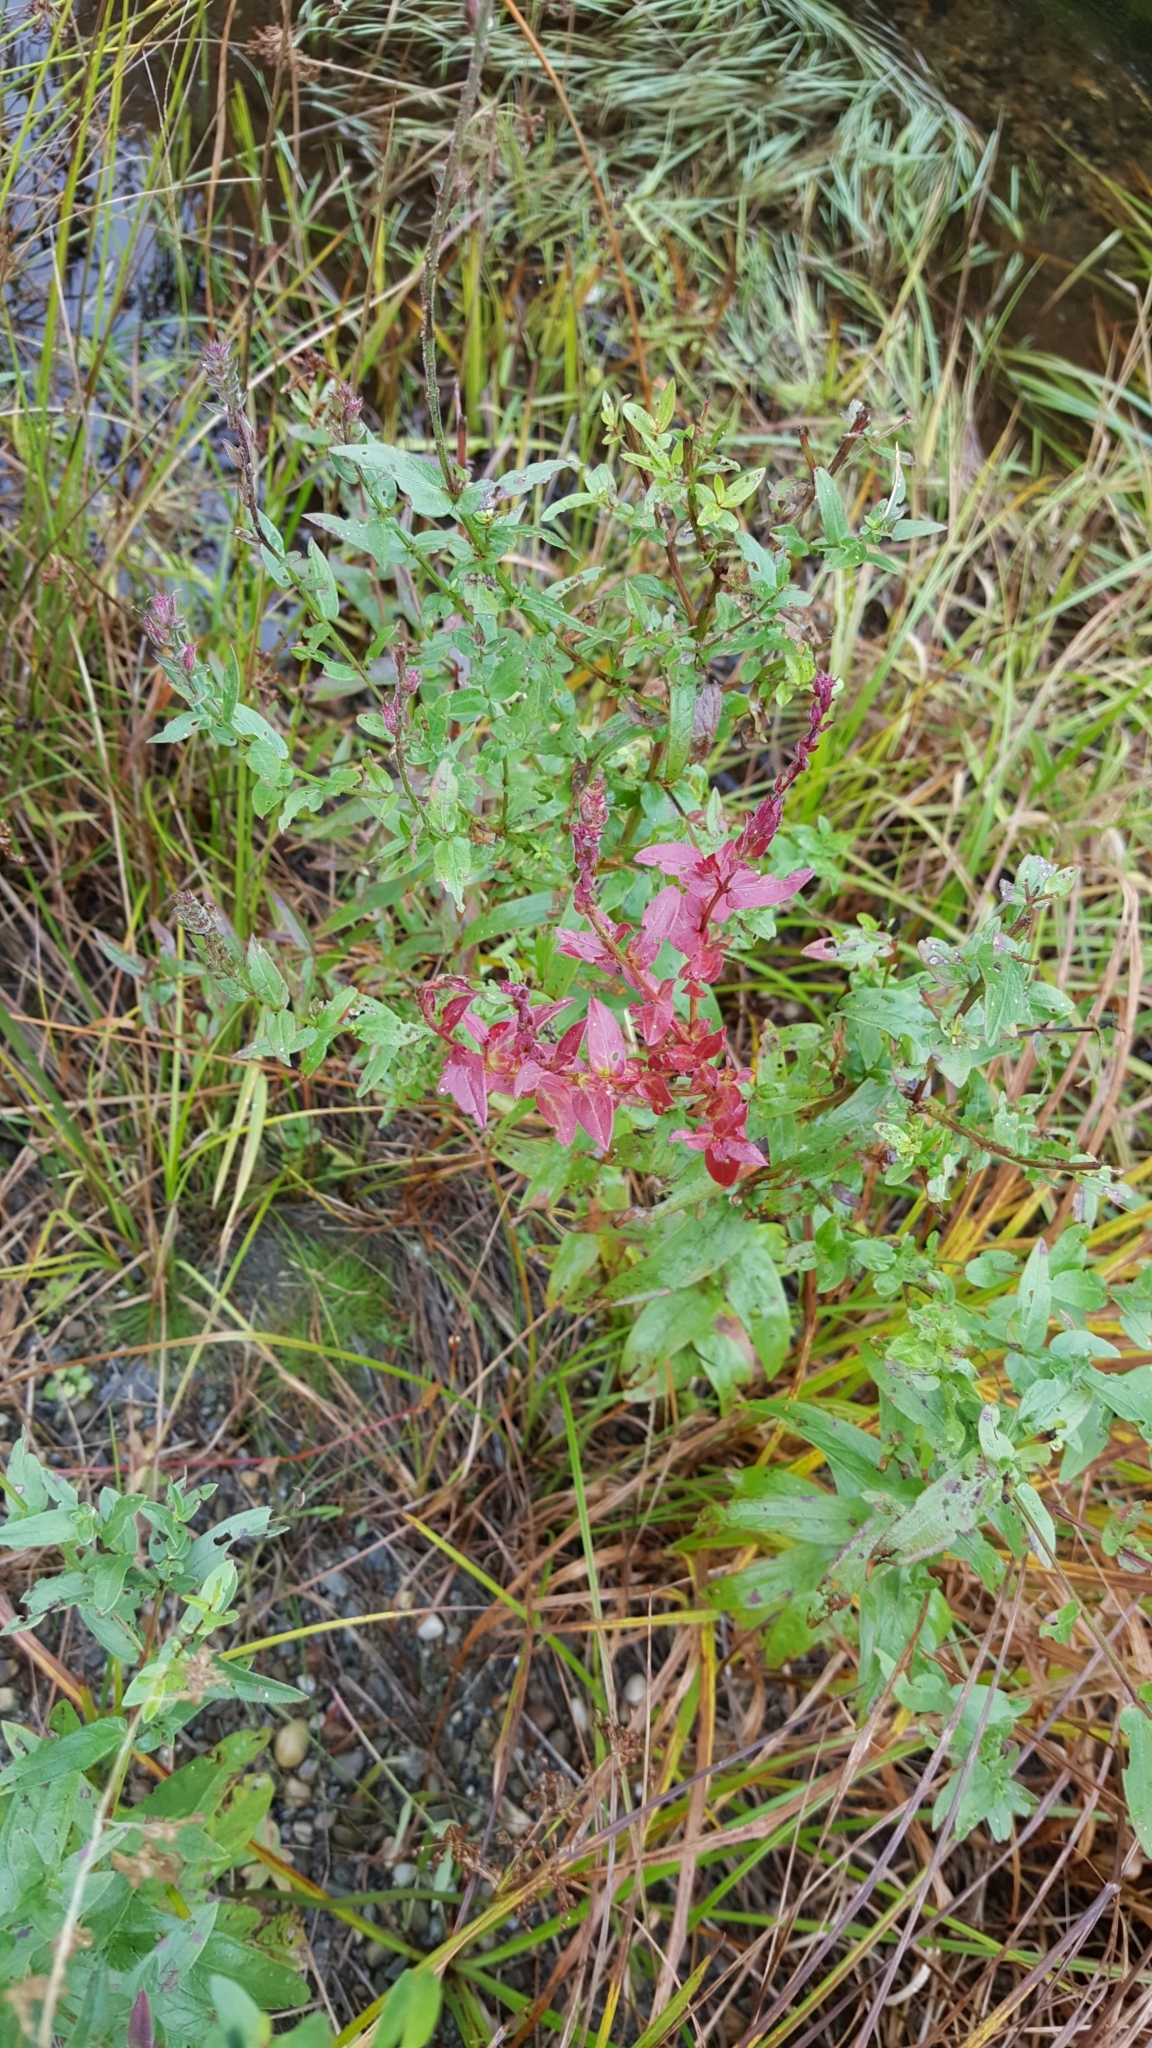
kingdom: Plantae
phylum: Tracheophyta
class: Magnoliopsida
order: Myrtales
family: Lythraceae
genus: Lythrum
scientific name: Lythrum salicaria
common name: Purple loosestrife
